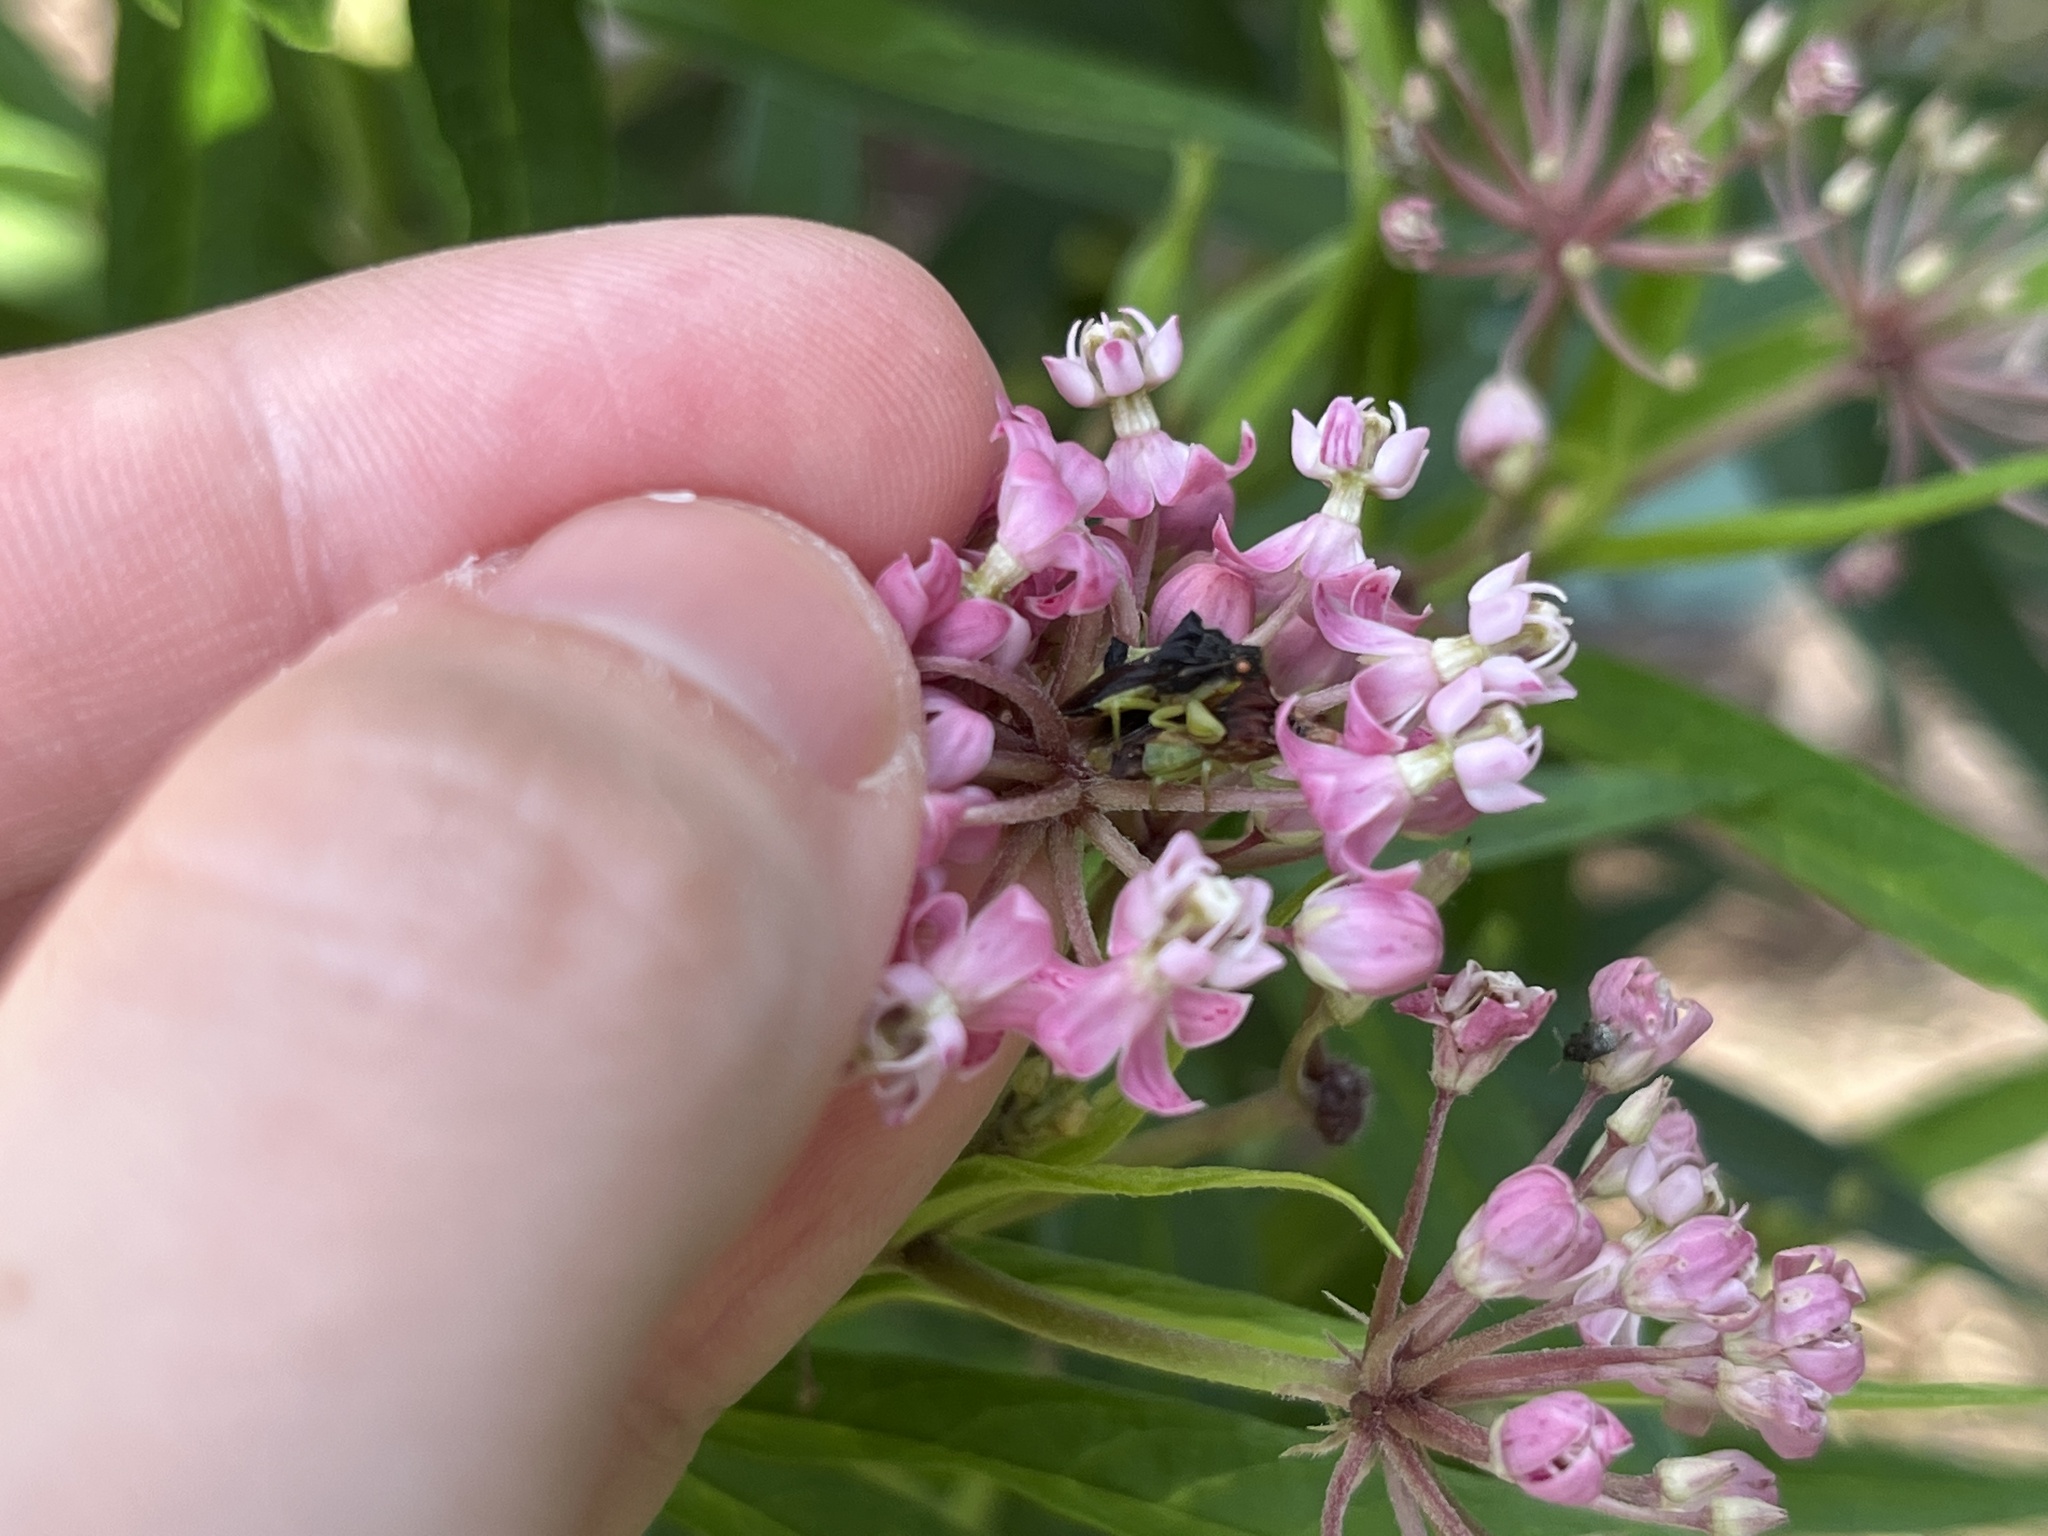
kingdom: Animalia
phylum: Arthropoda
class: Insecta
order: Hemiptera
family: Reduviidae
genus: Phymata
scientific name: Phymata pennsylvanica
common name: Pennsylvania ambush bug
